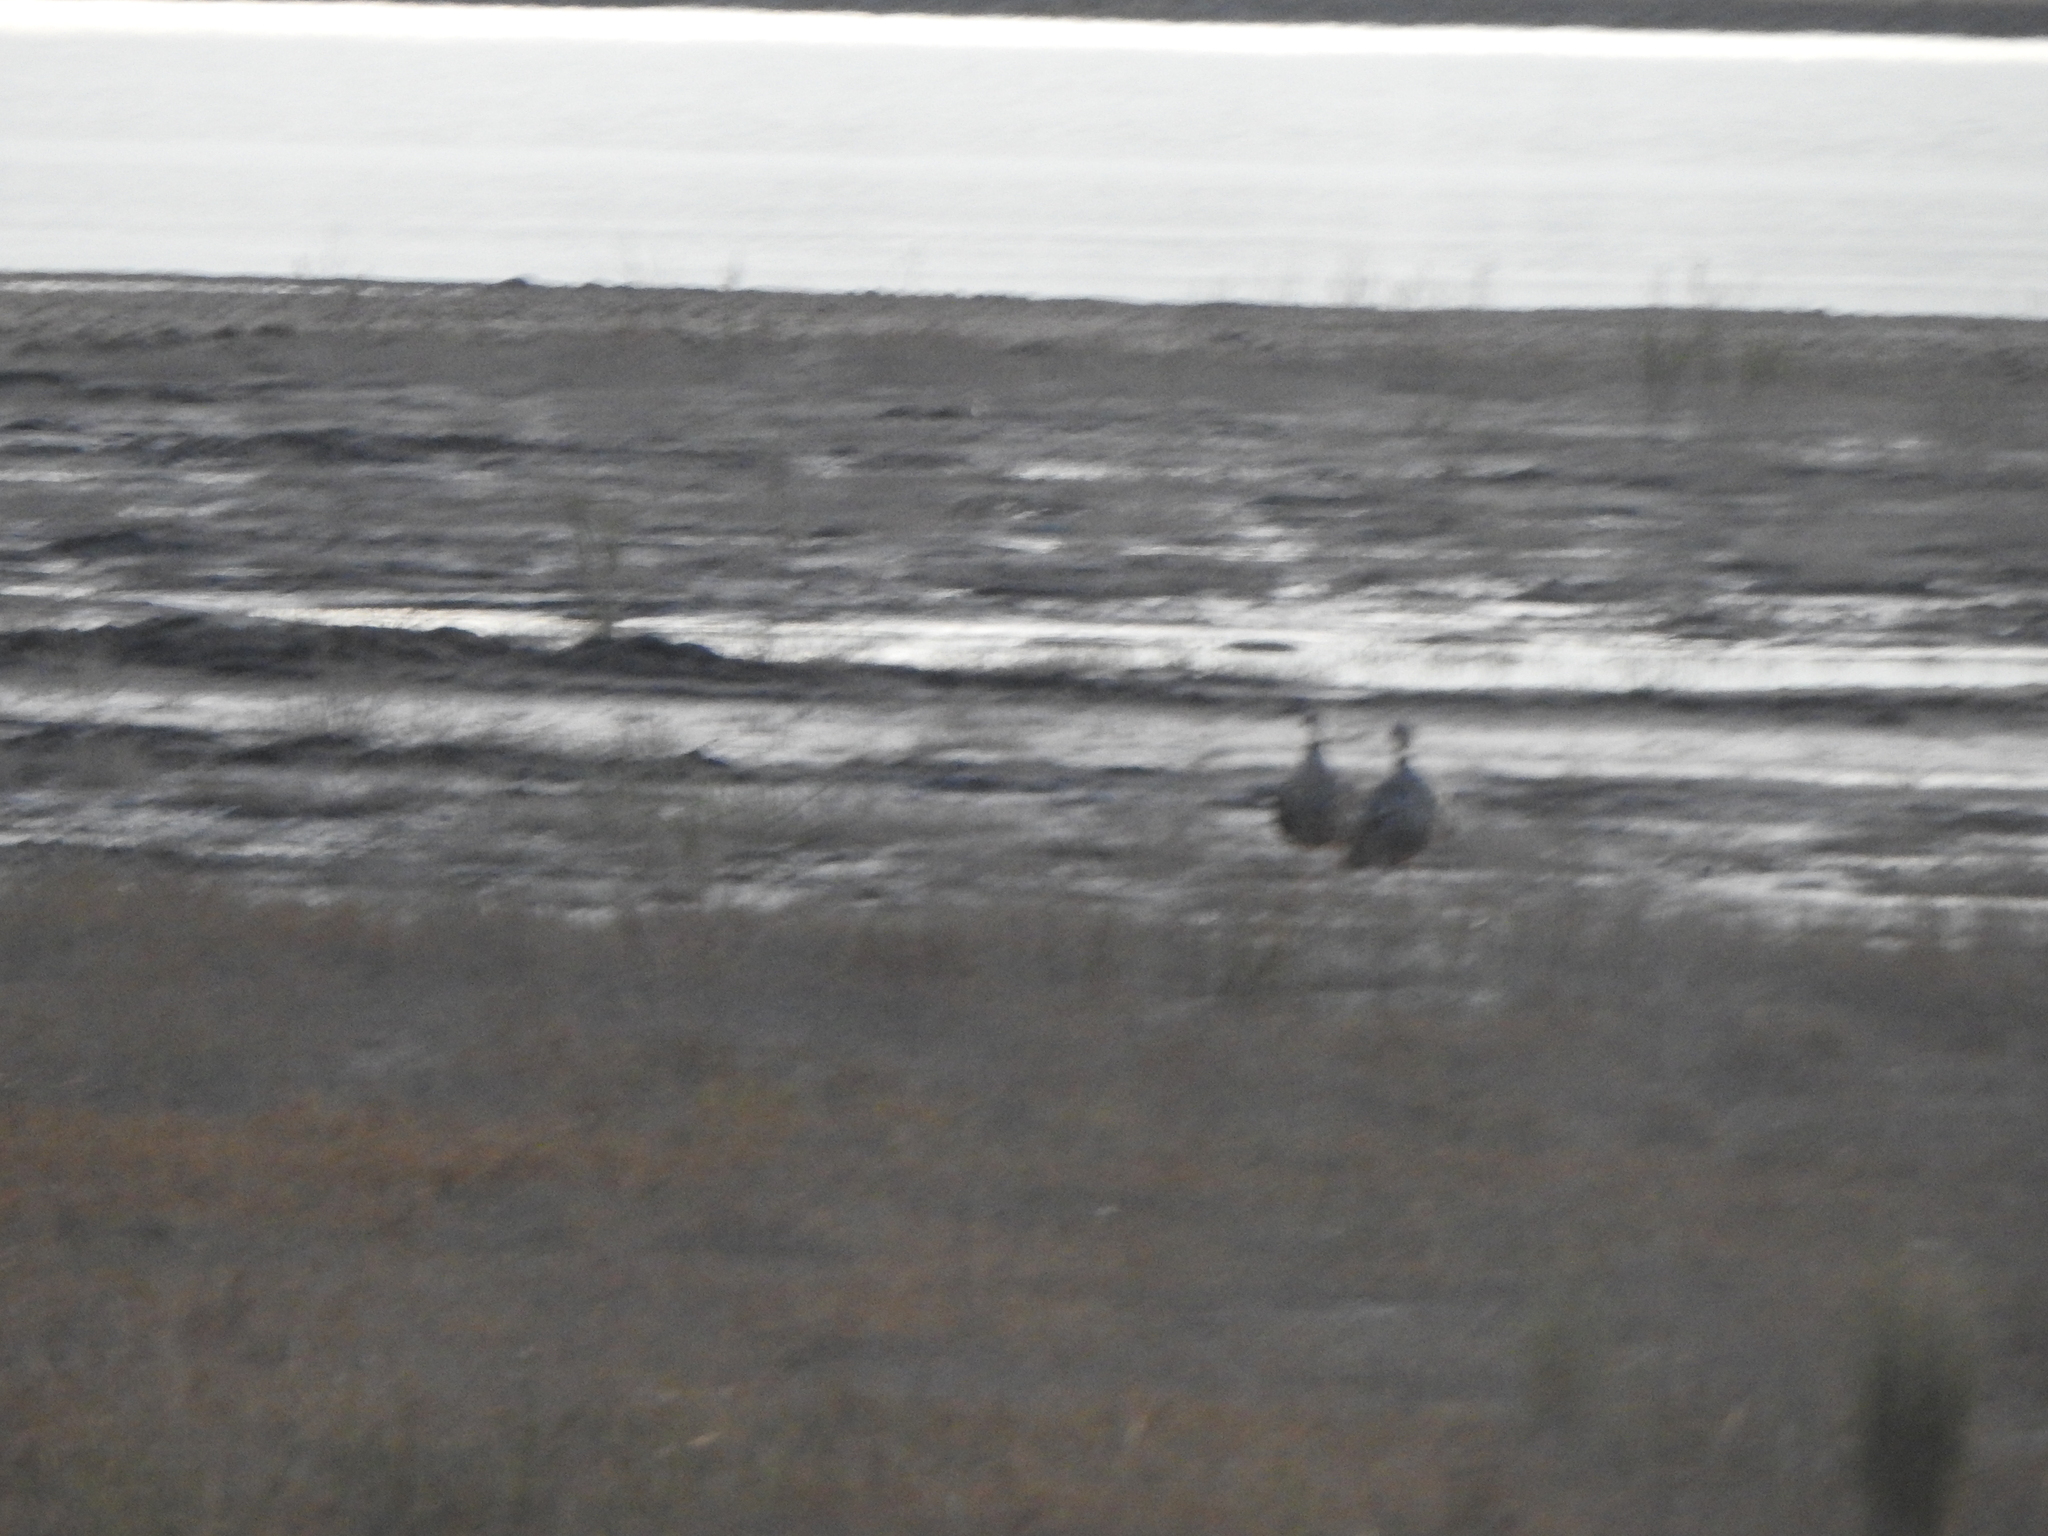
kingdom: Animalia
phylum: Chordata
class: Aves
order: Anseriformes
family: Anhimidae
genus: Chauna
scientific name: Chauna torquata
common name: Southern screamer
